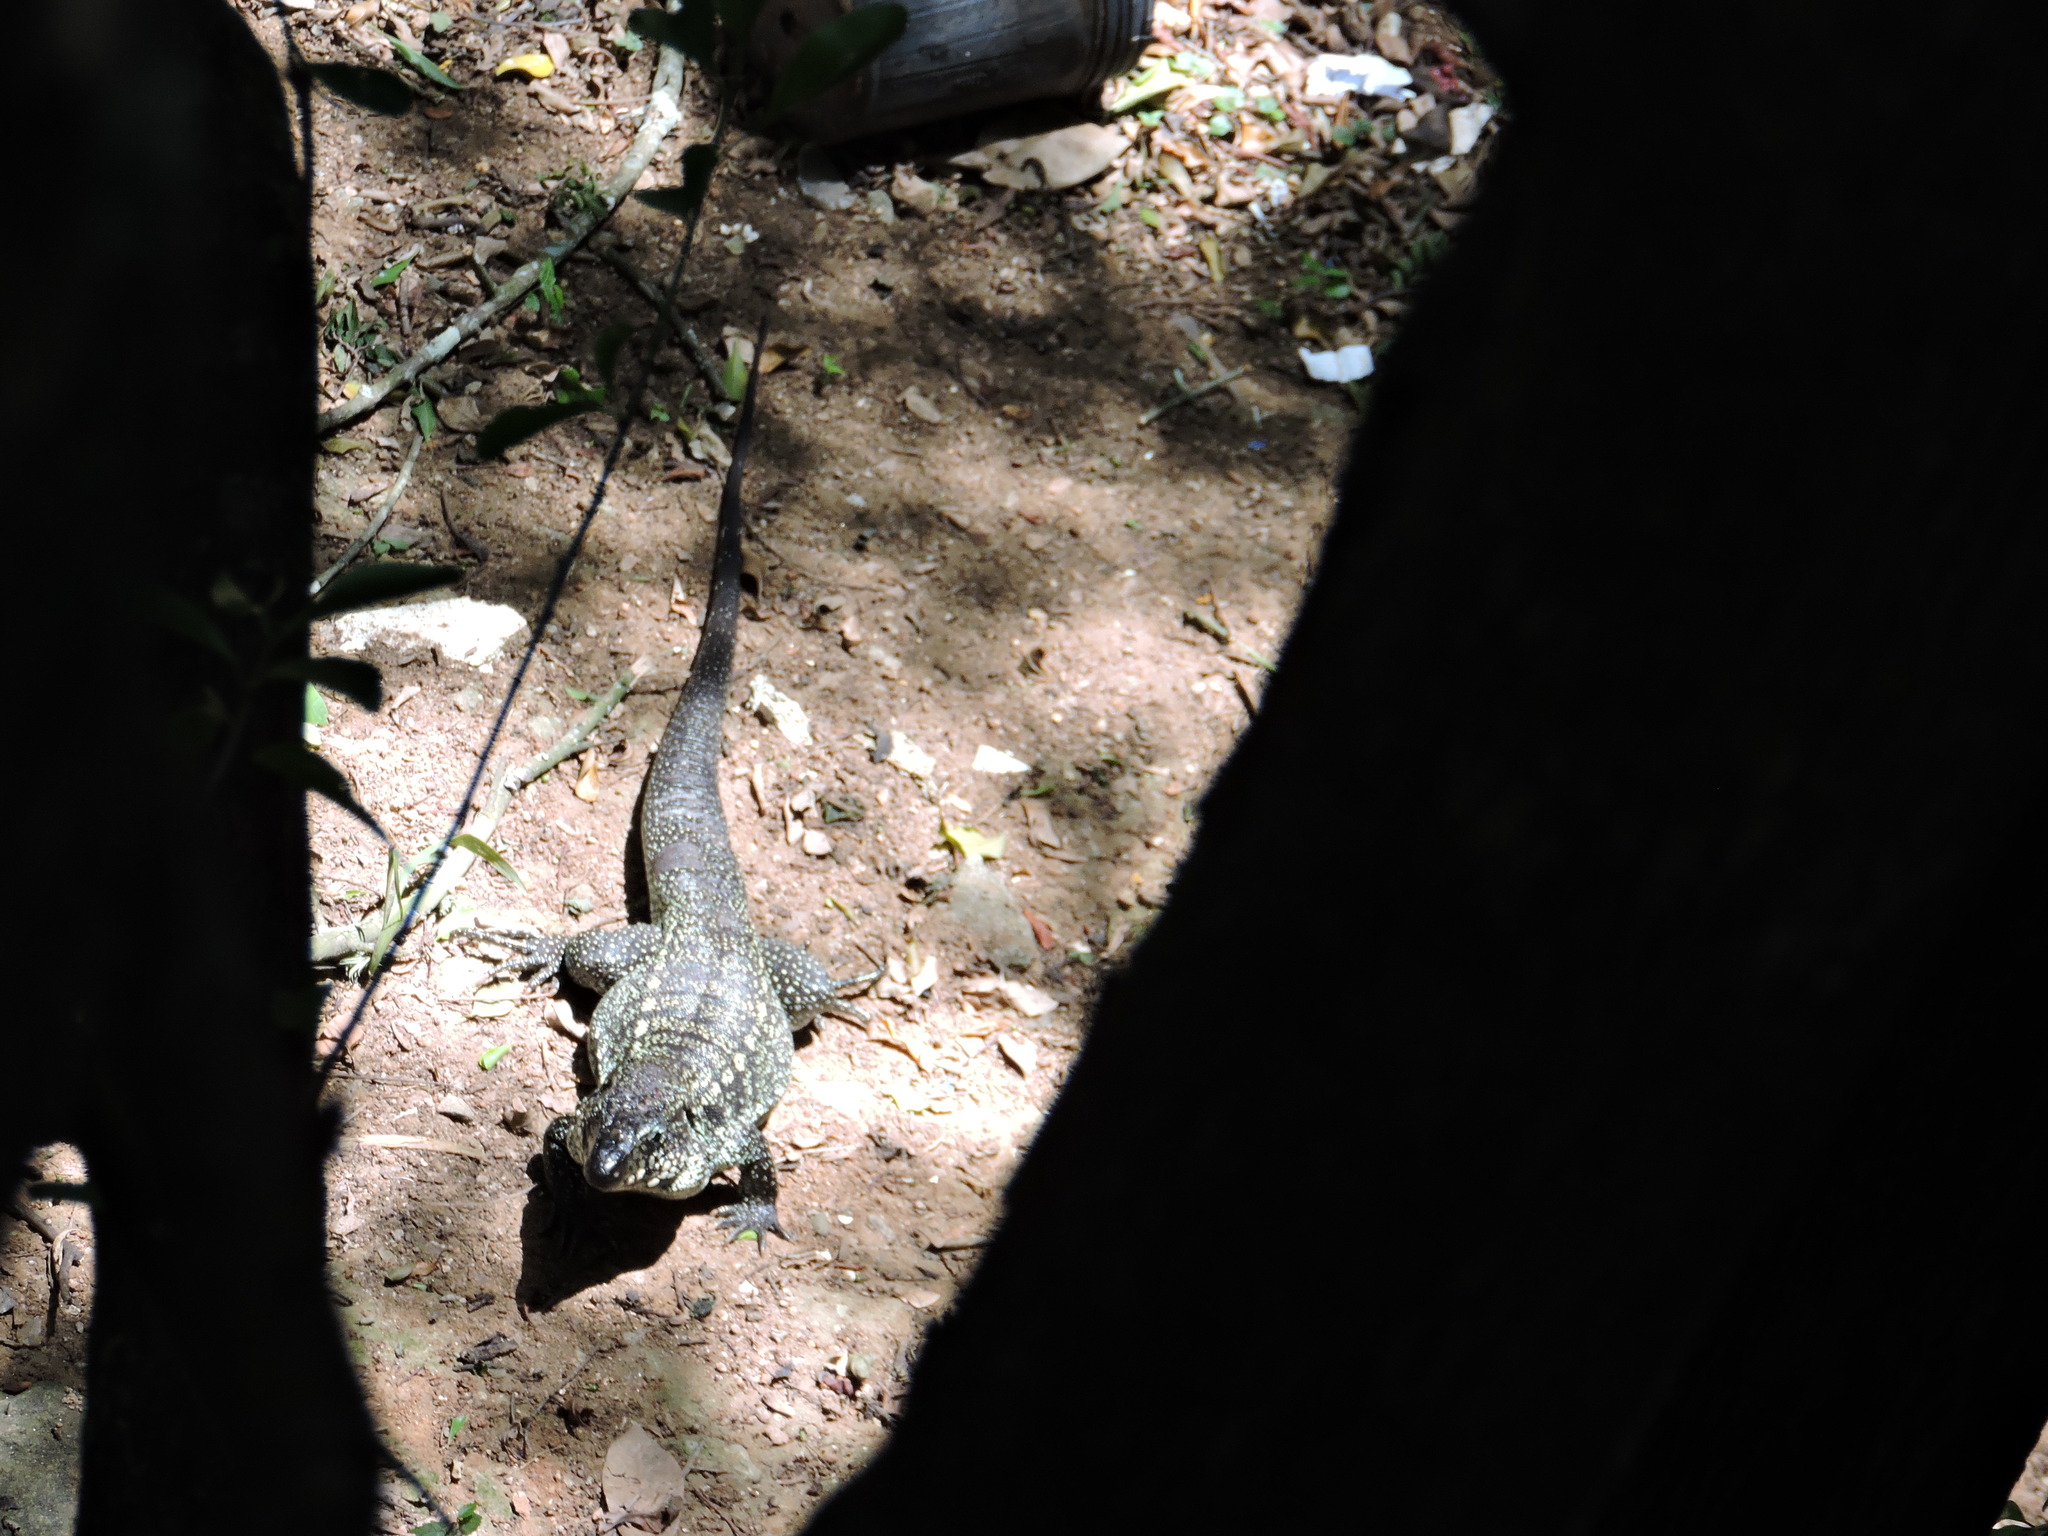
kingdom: Animalia
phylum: Chordata
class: Squamata
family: Teiidae
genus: Salvator
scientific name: Salvator merianae
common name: Argentine black and white tegu
